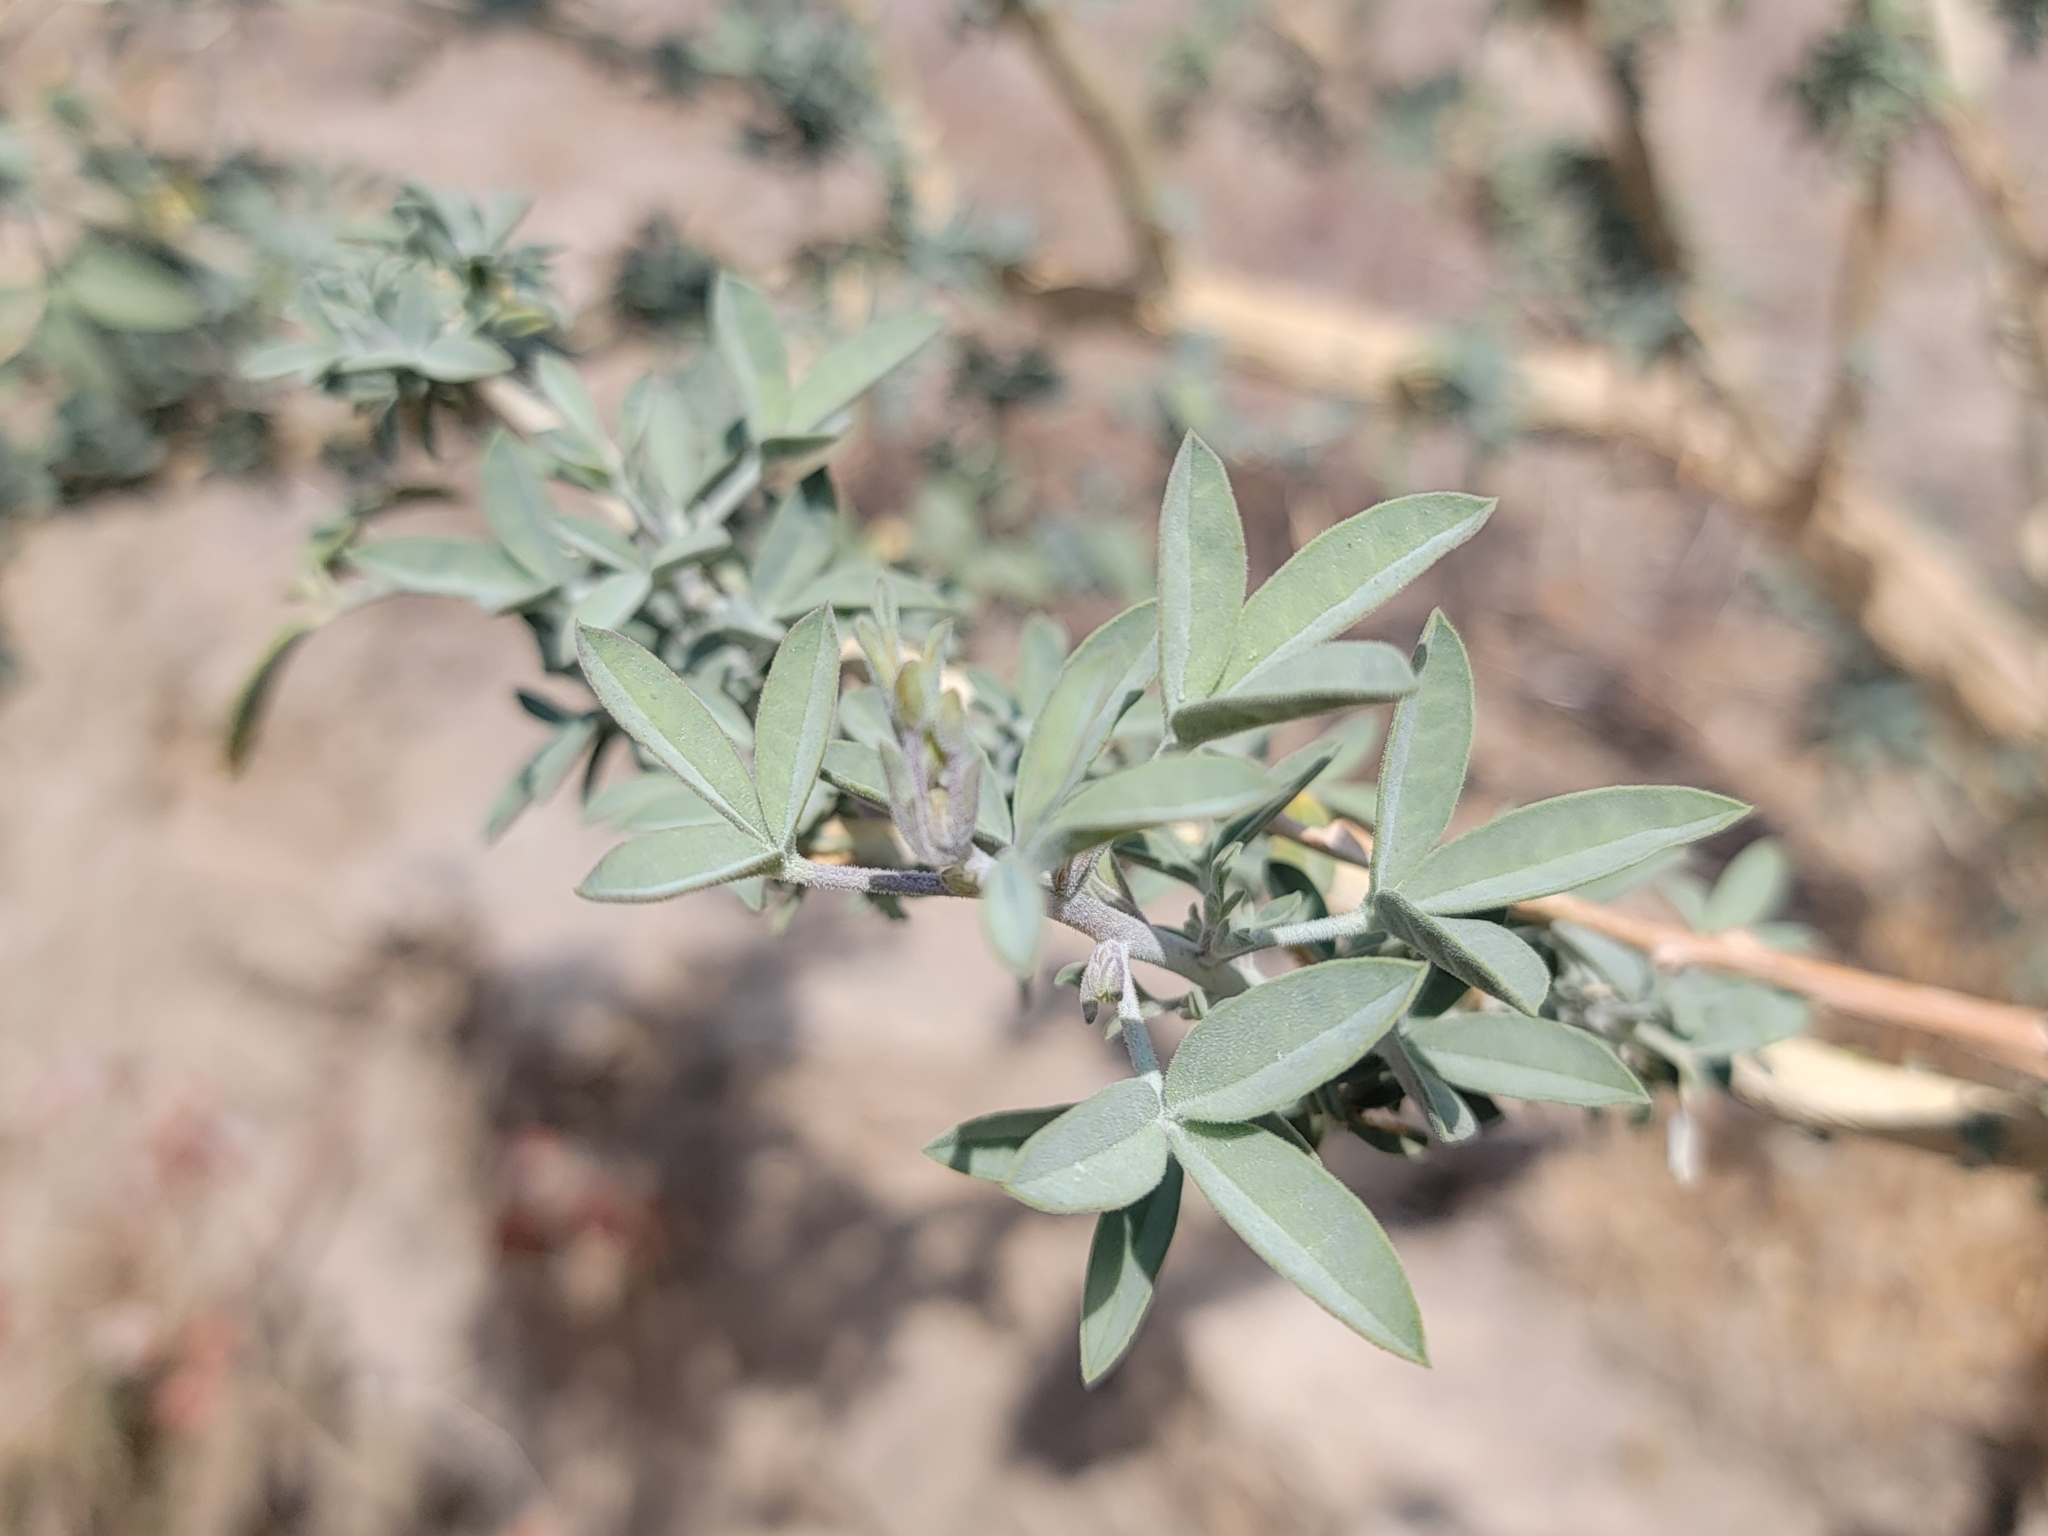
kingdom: Plantae
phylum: Tracheophyta
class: Magnoliopsida
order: Brassicales
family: Cleomaceae
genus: Cleomella
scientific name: Cleomella arborea
